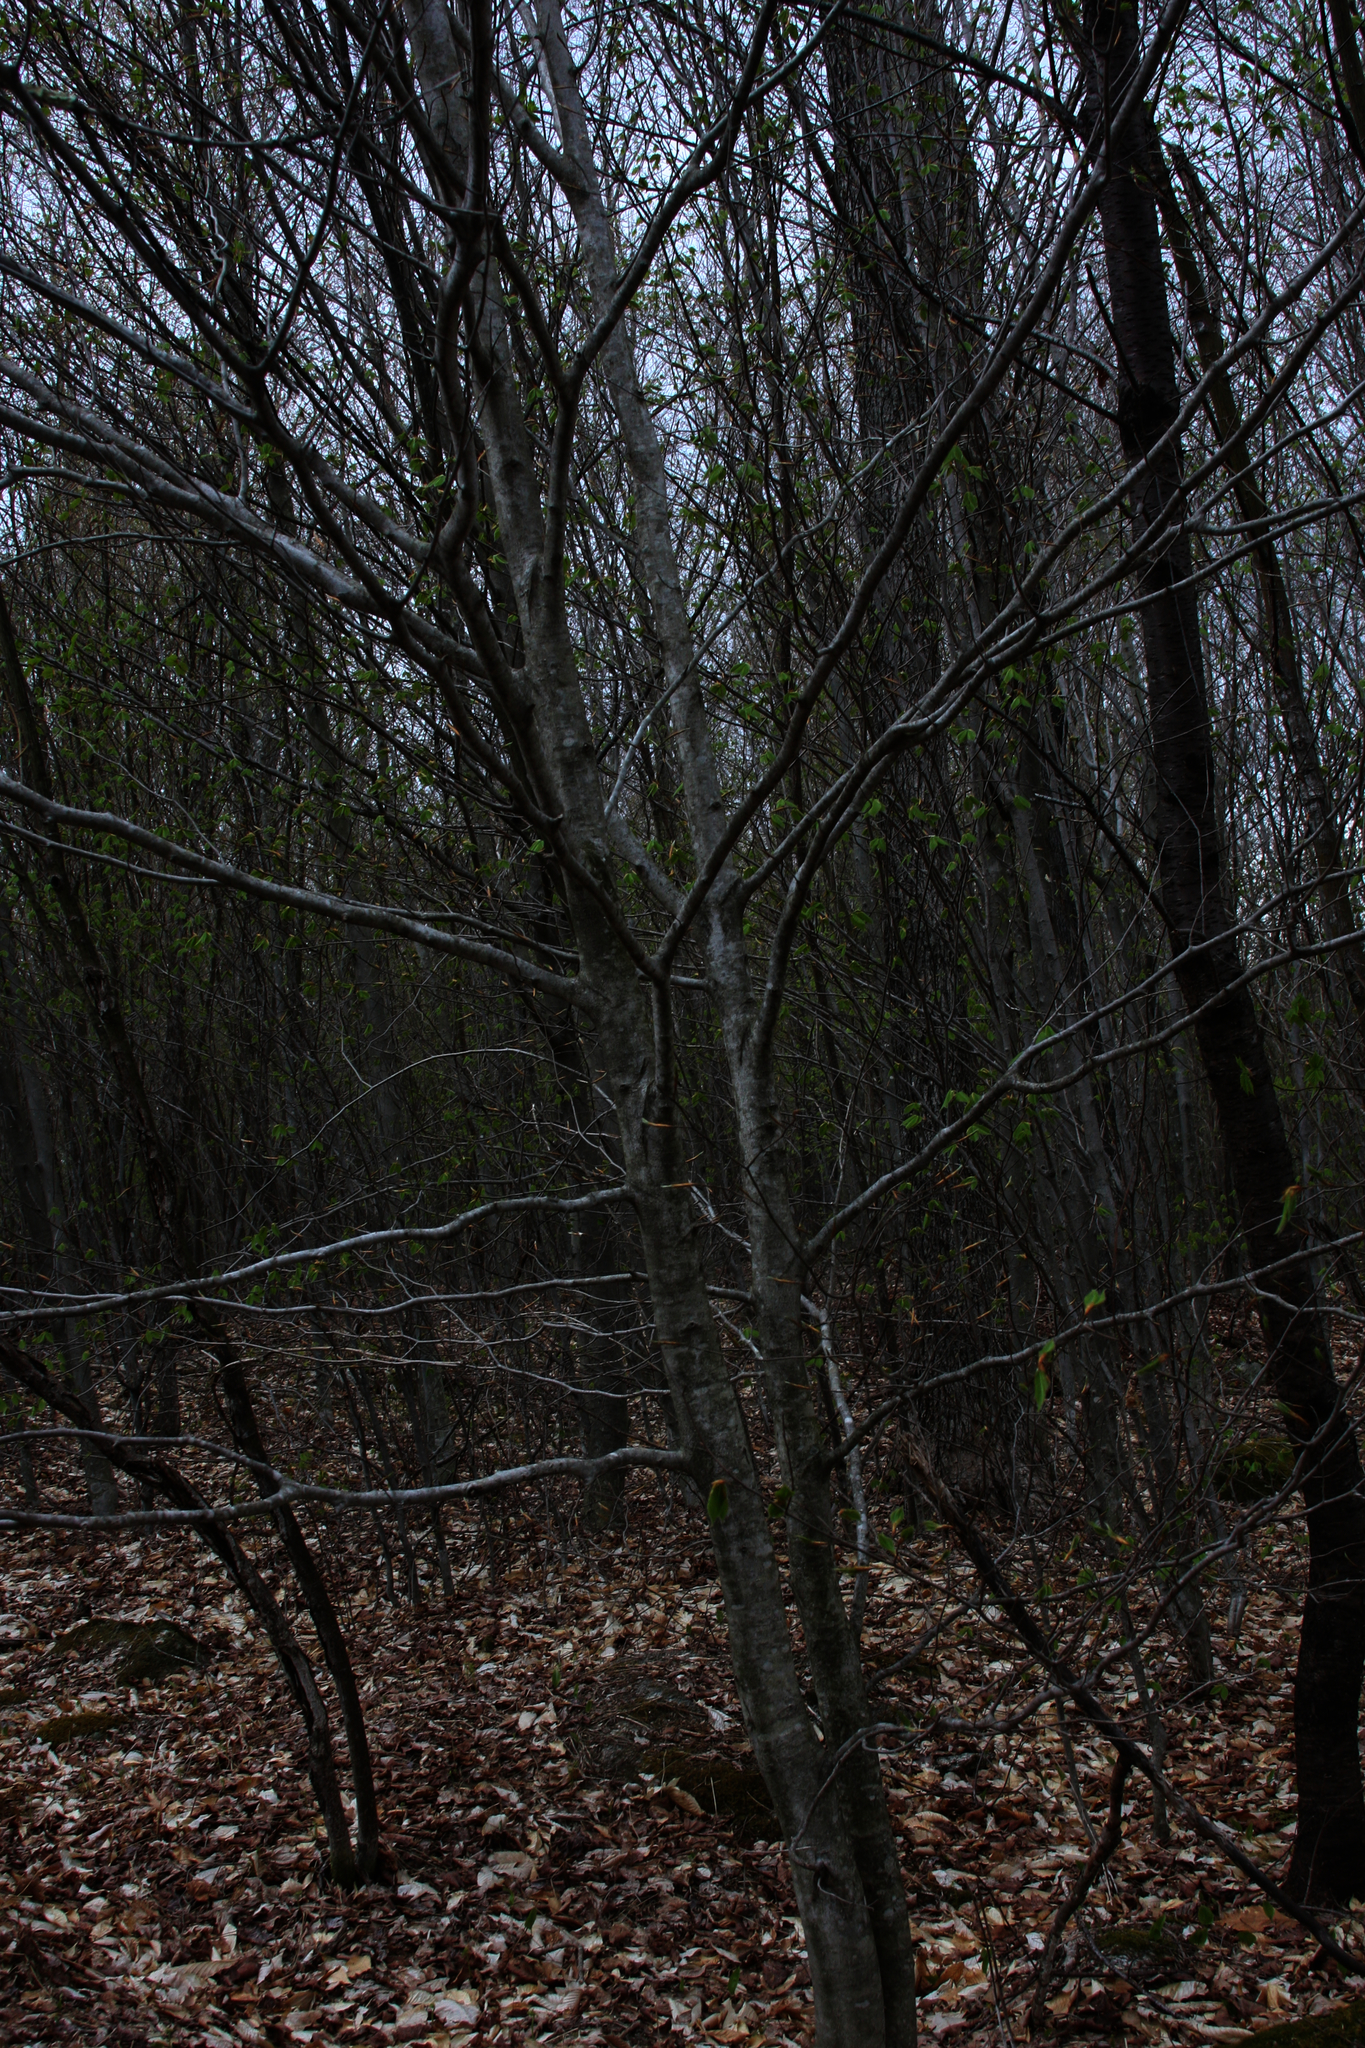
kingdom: Plantae
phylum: Tracheophyta
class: Magnoliopsida
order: Fagales
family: Fagaceae
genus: Fagus
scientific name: Fagus grandifolia
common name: American beech
